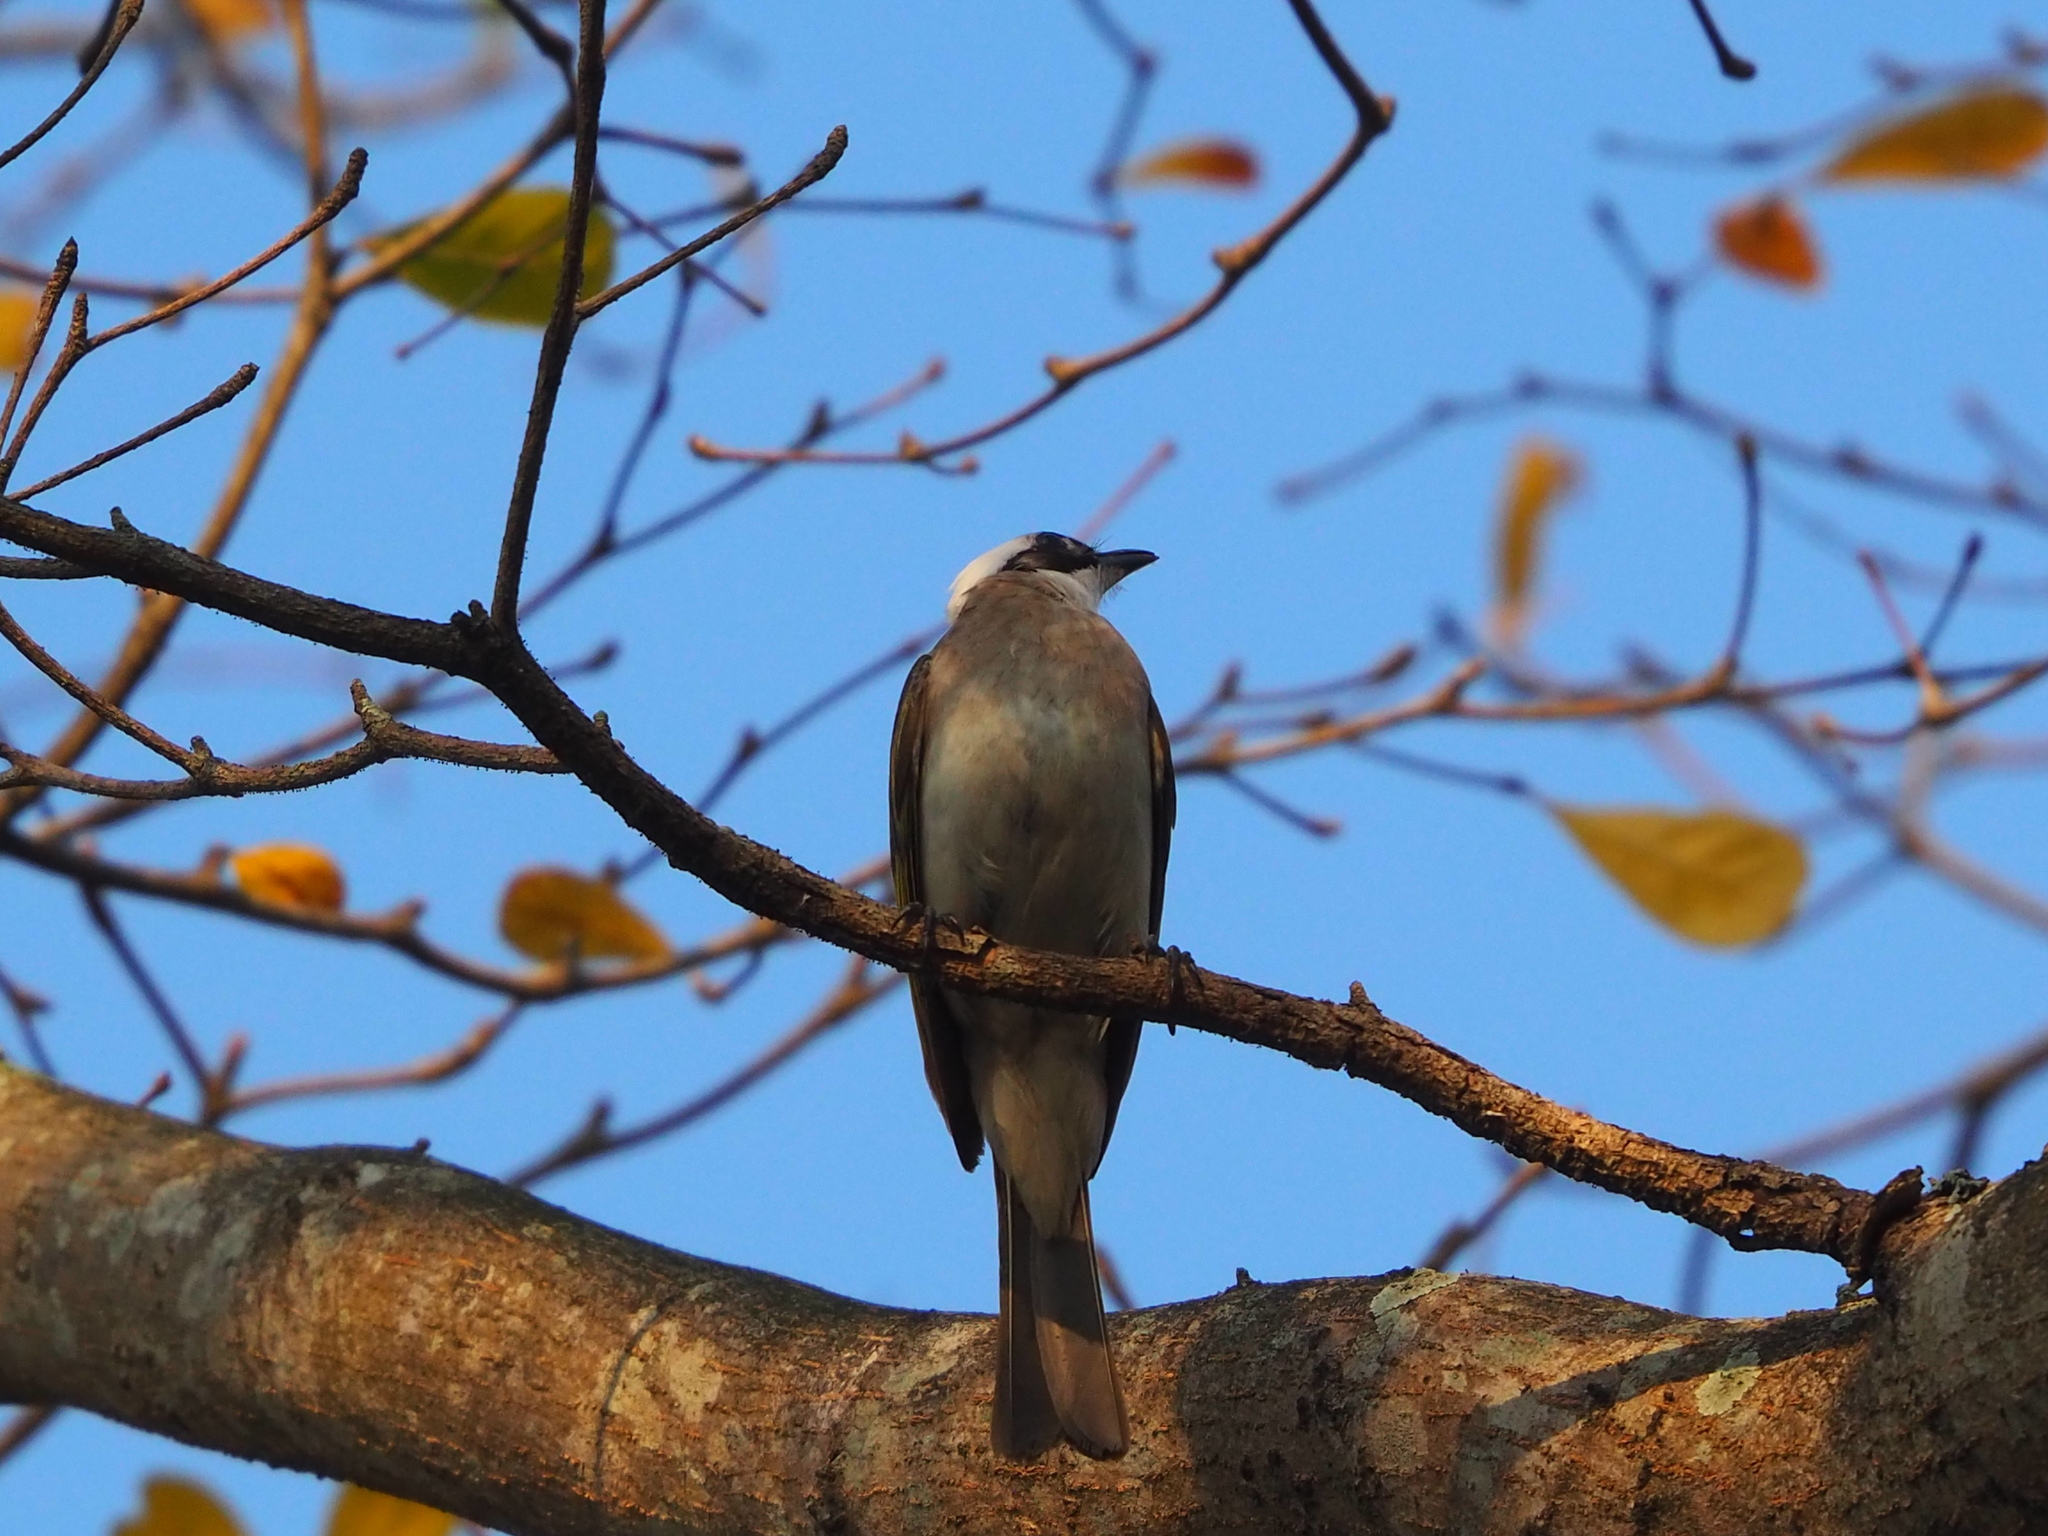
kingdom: Animalia
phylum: Chordata
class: Aves
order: Passeriformes
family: Pycnonotidae
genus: Pycnonotus
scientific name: Pycnonotus sinensis
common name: Light-vented bulbul
